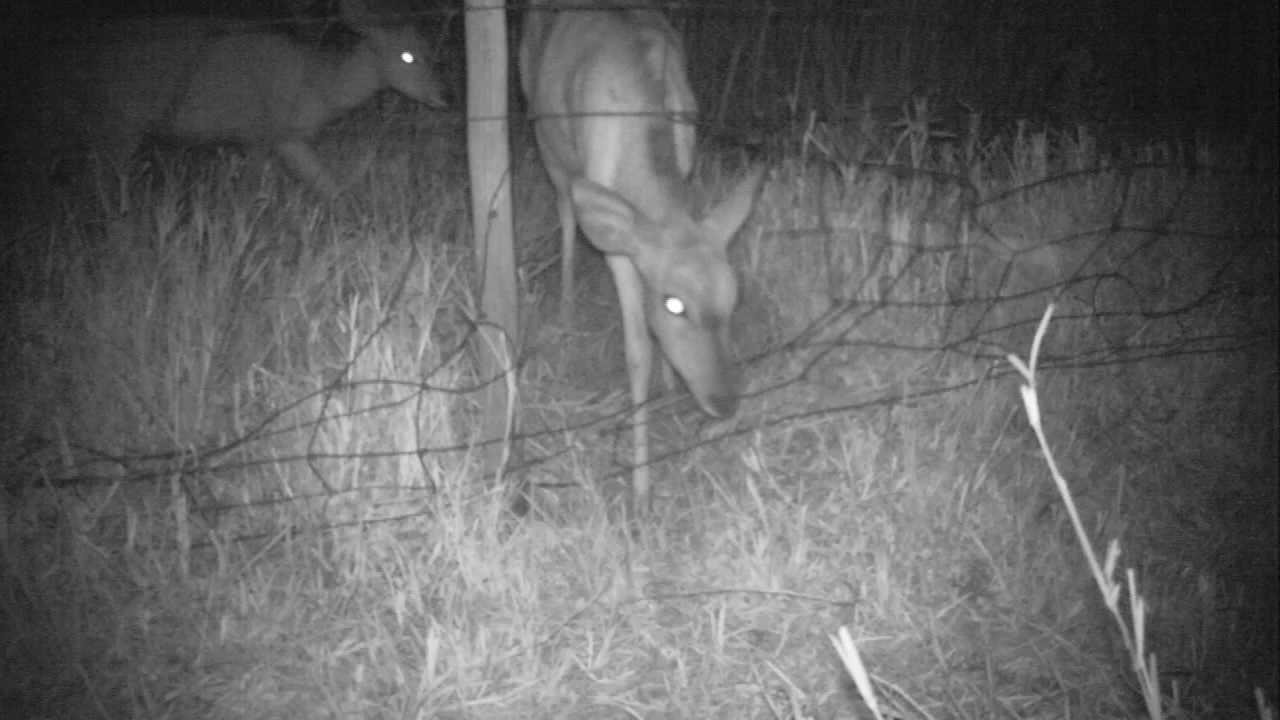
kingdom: Animalia
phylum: Chordata
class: Mammalia
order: Artiodactyla
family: Bovidae
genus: Tragelaphus
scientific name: Tragelaphus angasii
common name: Nyala
